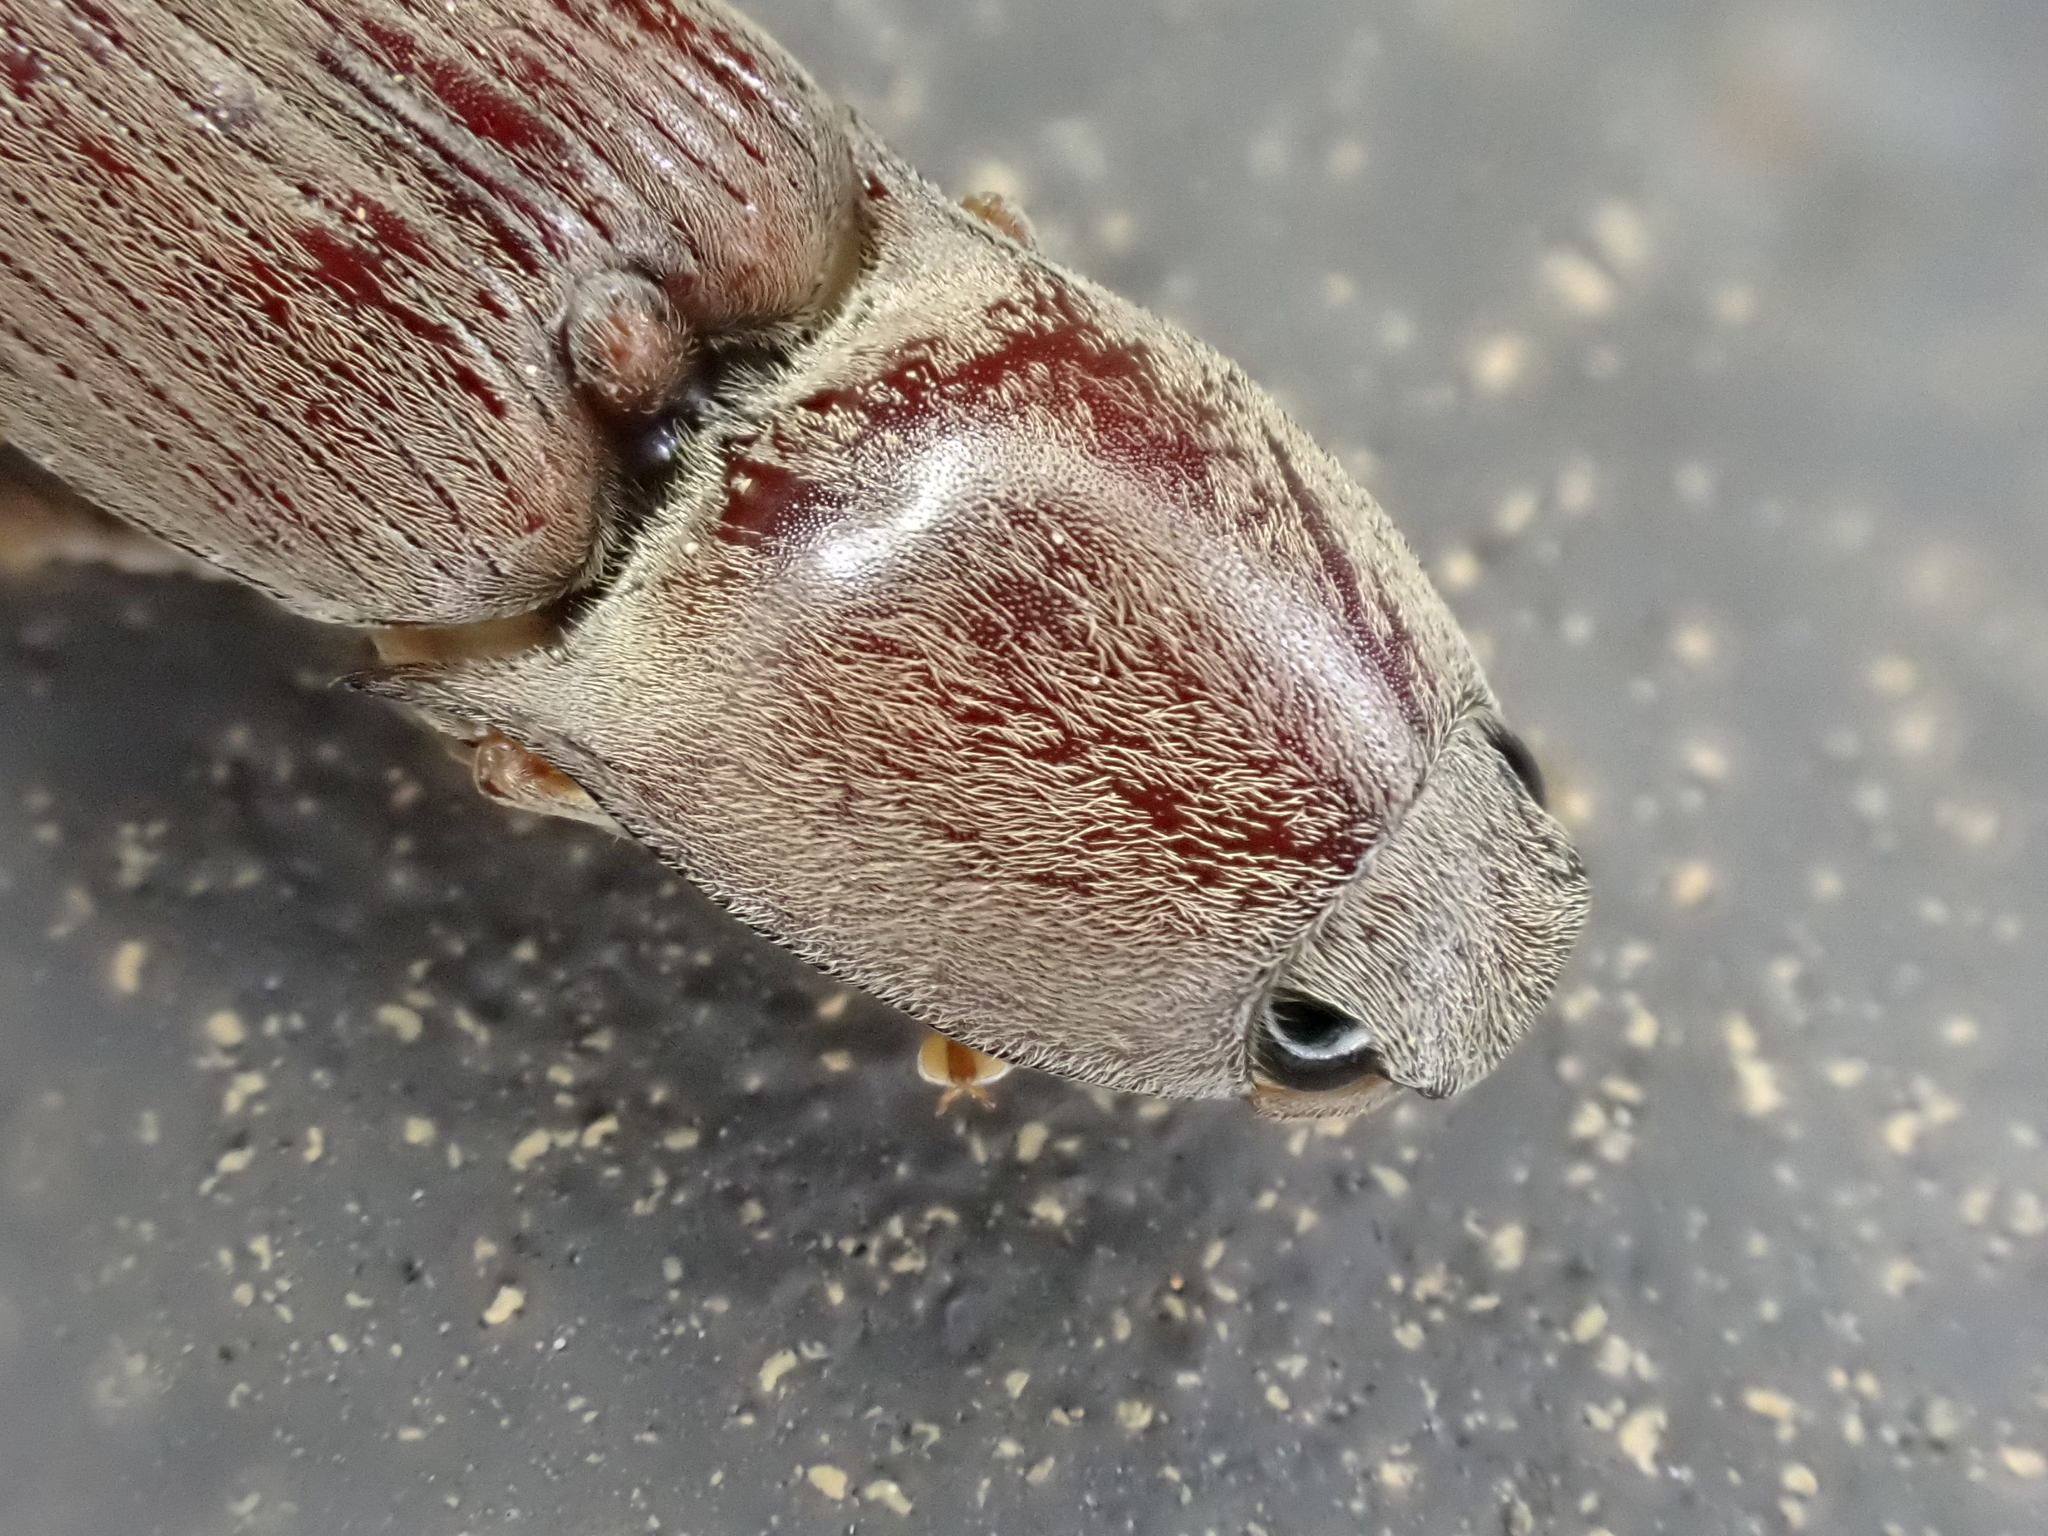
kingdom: Animalia
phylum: Arthropoda
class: Insecta
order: Coleoptera
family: Elateridae
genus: Monocrepidius
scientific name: Monocrepidius lividus
